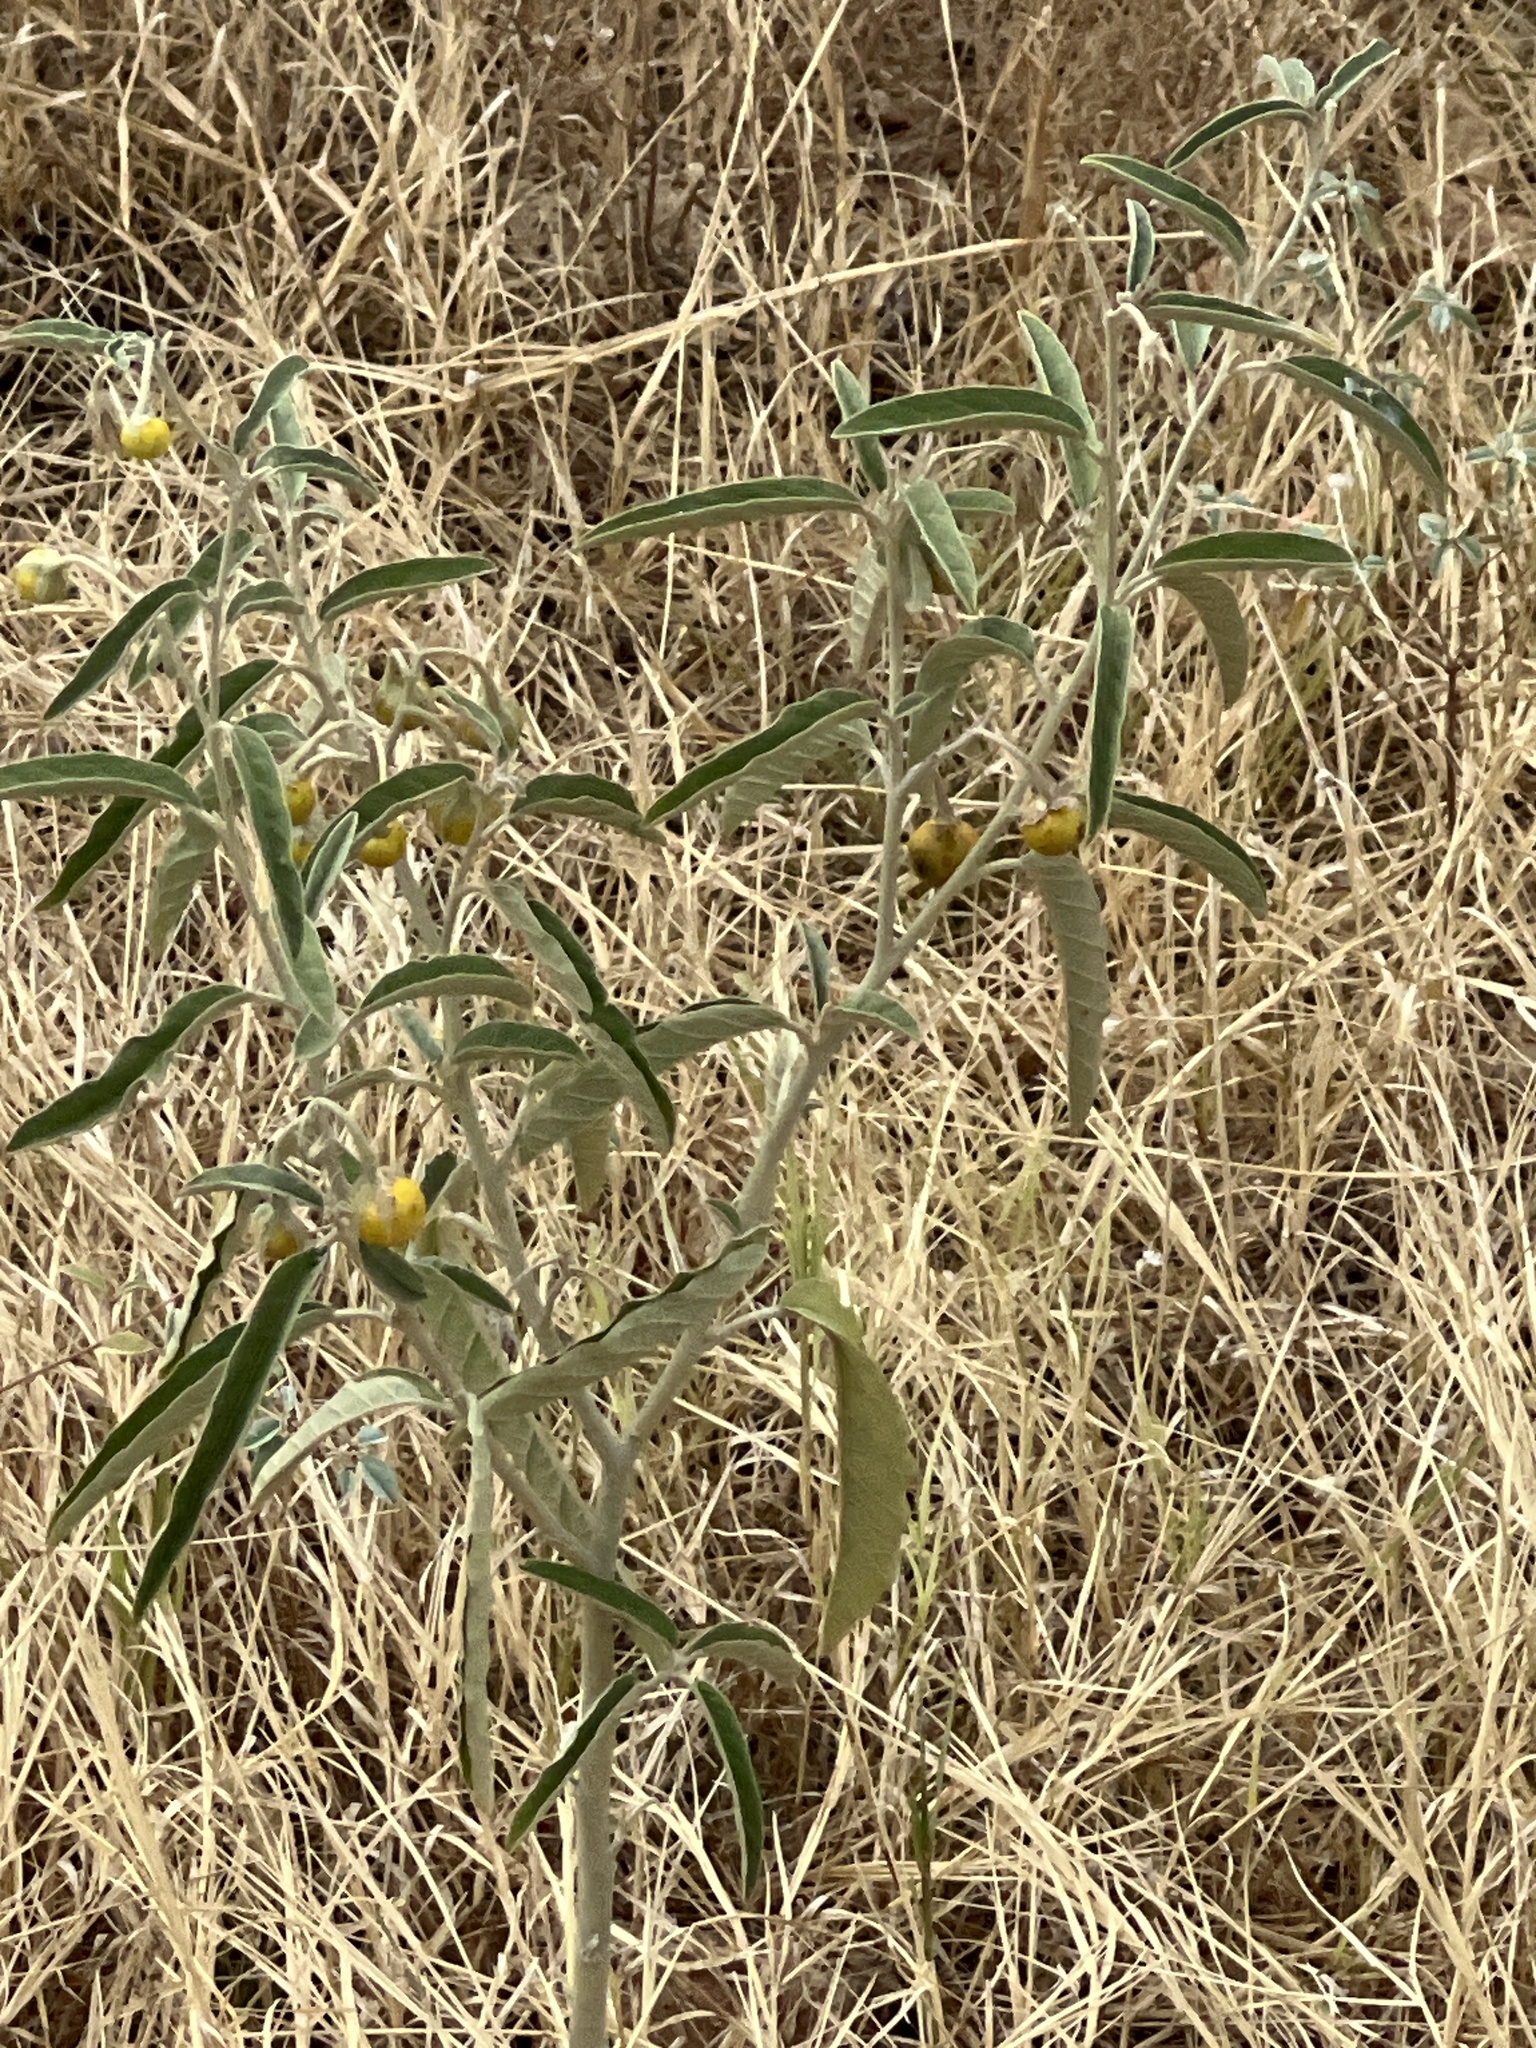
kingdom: Plantae
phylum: Tracheophyta
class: Magnoliopsida
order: Solanales
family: Solanaceae
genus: Solanum
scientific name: Solanum elaeagnifolium
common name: Silverleaf nightshade
